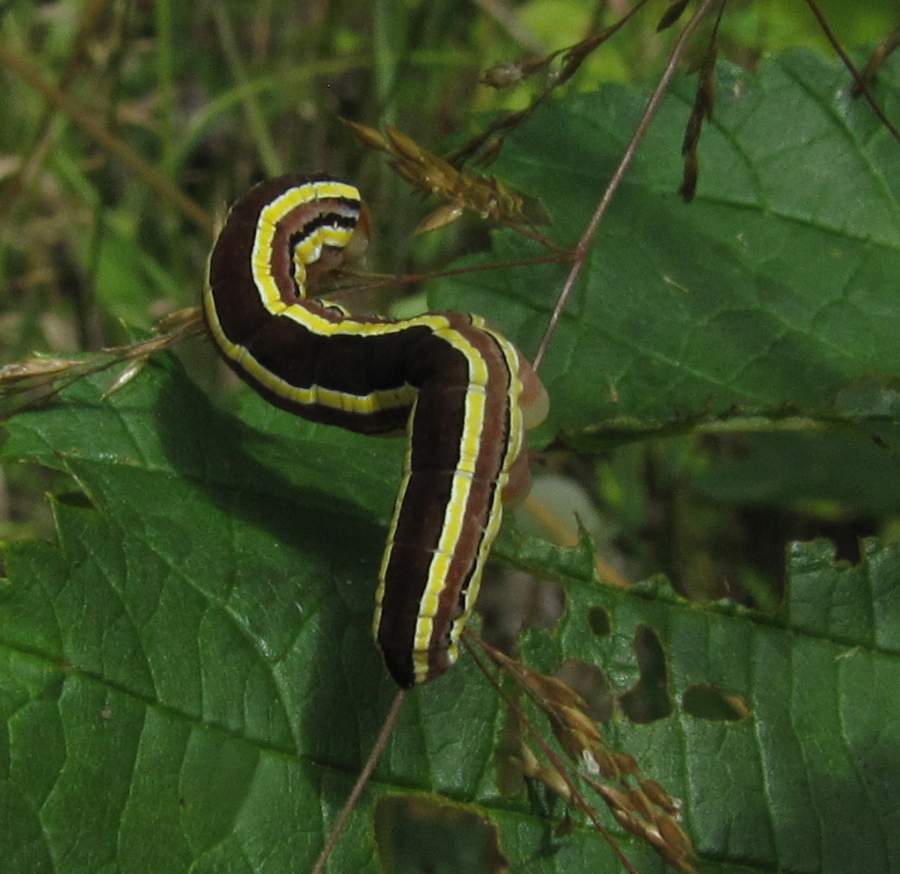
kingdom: Animalia
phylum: Arthropoda
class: Insecta
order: Lepidoptera
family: Noctuidae
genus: Trichordestra
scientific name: Trichordestra legitima
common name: Striped garden caterpillar
